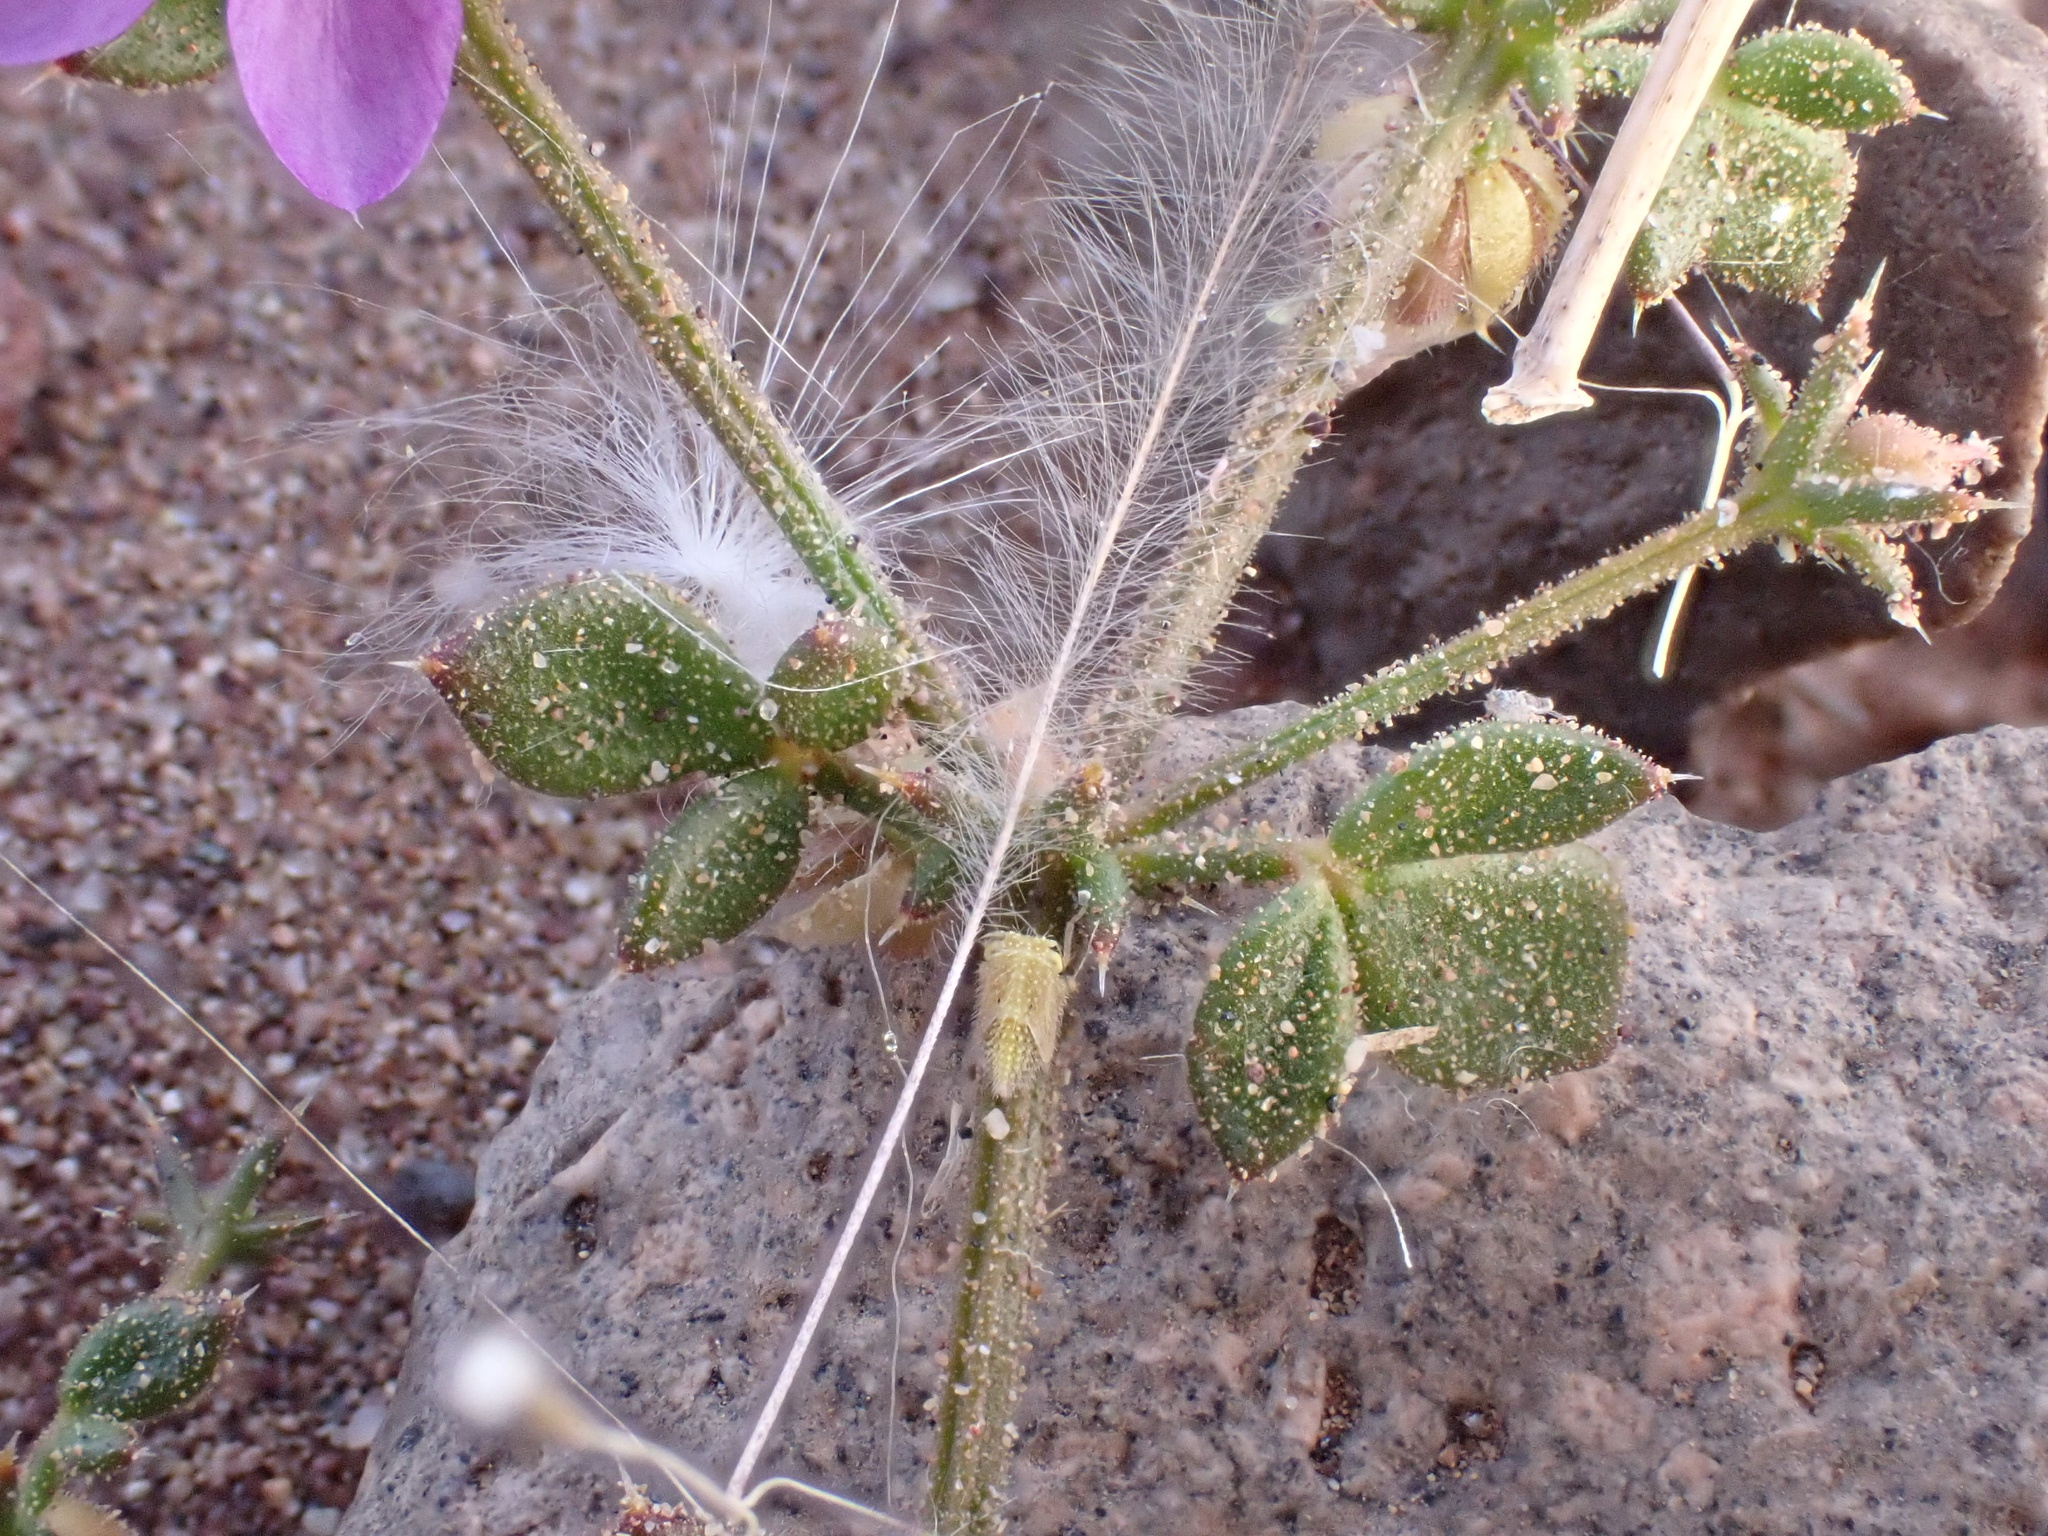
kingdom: Plantae
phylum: Tracheophyta
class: Magnoliopsida
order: Zygophyllales
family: Zygophyllaceae
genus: Fagonia
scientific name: Fagonia glutinosa
